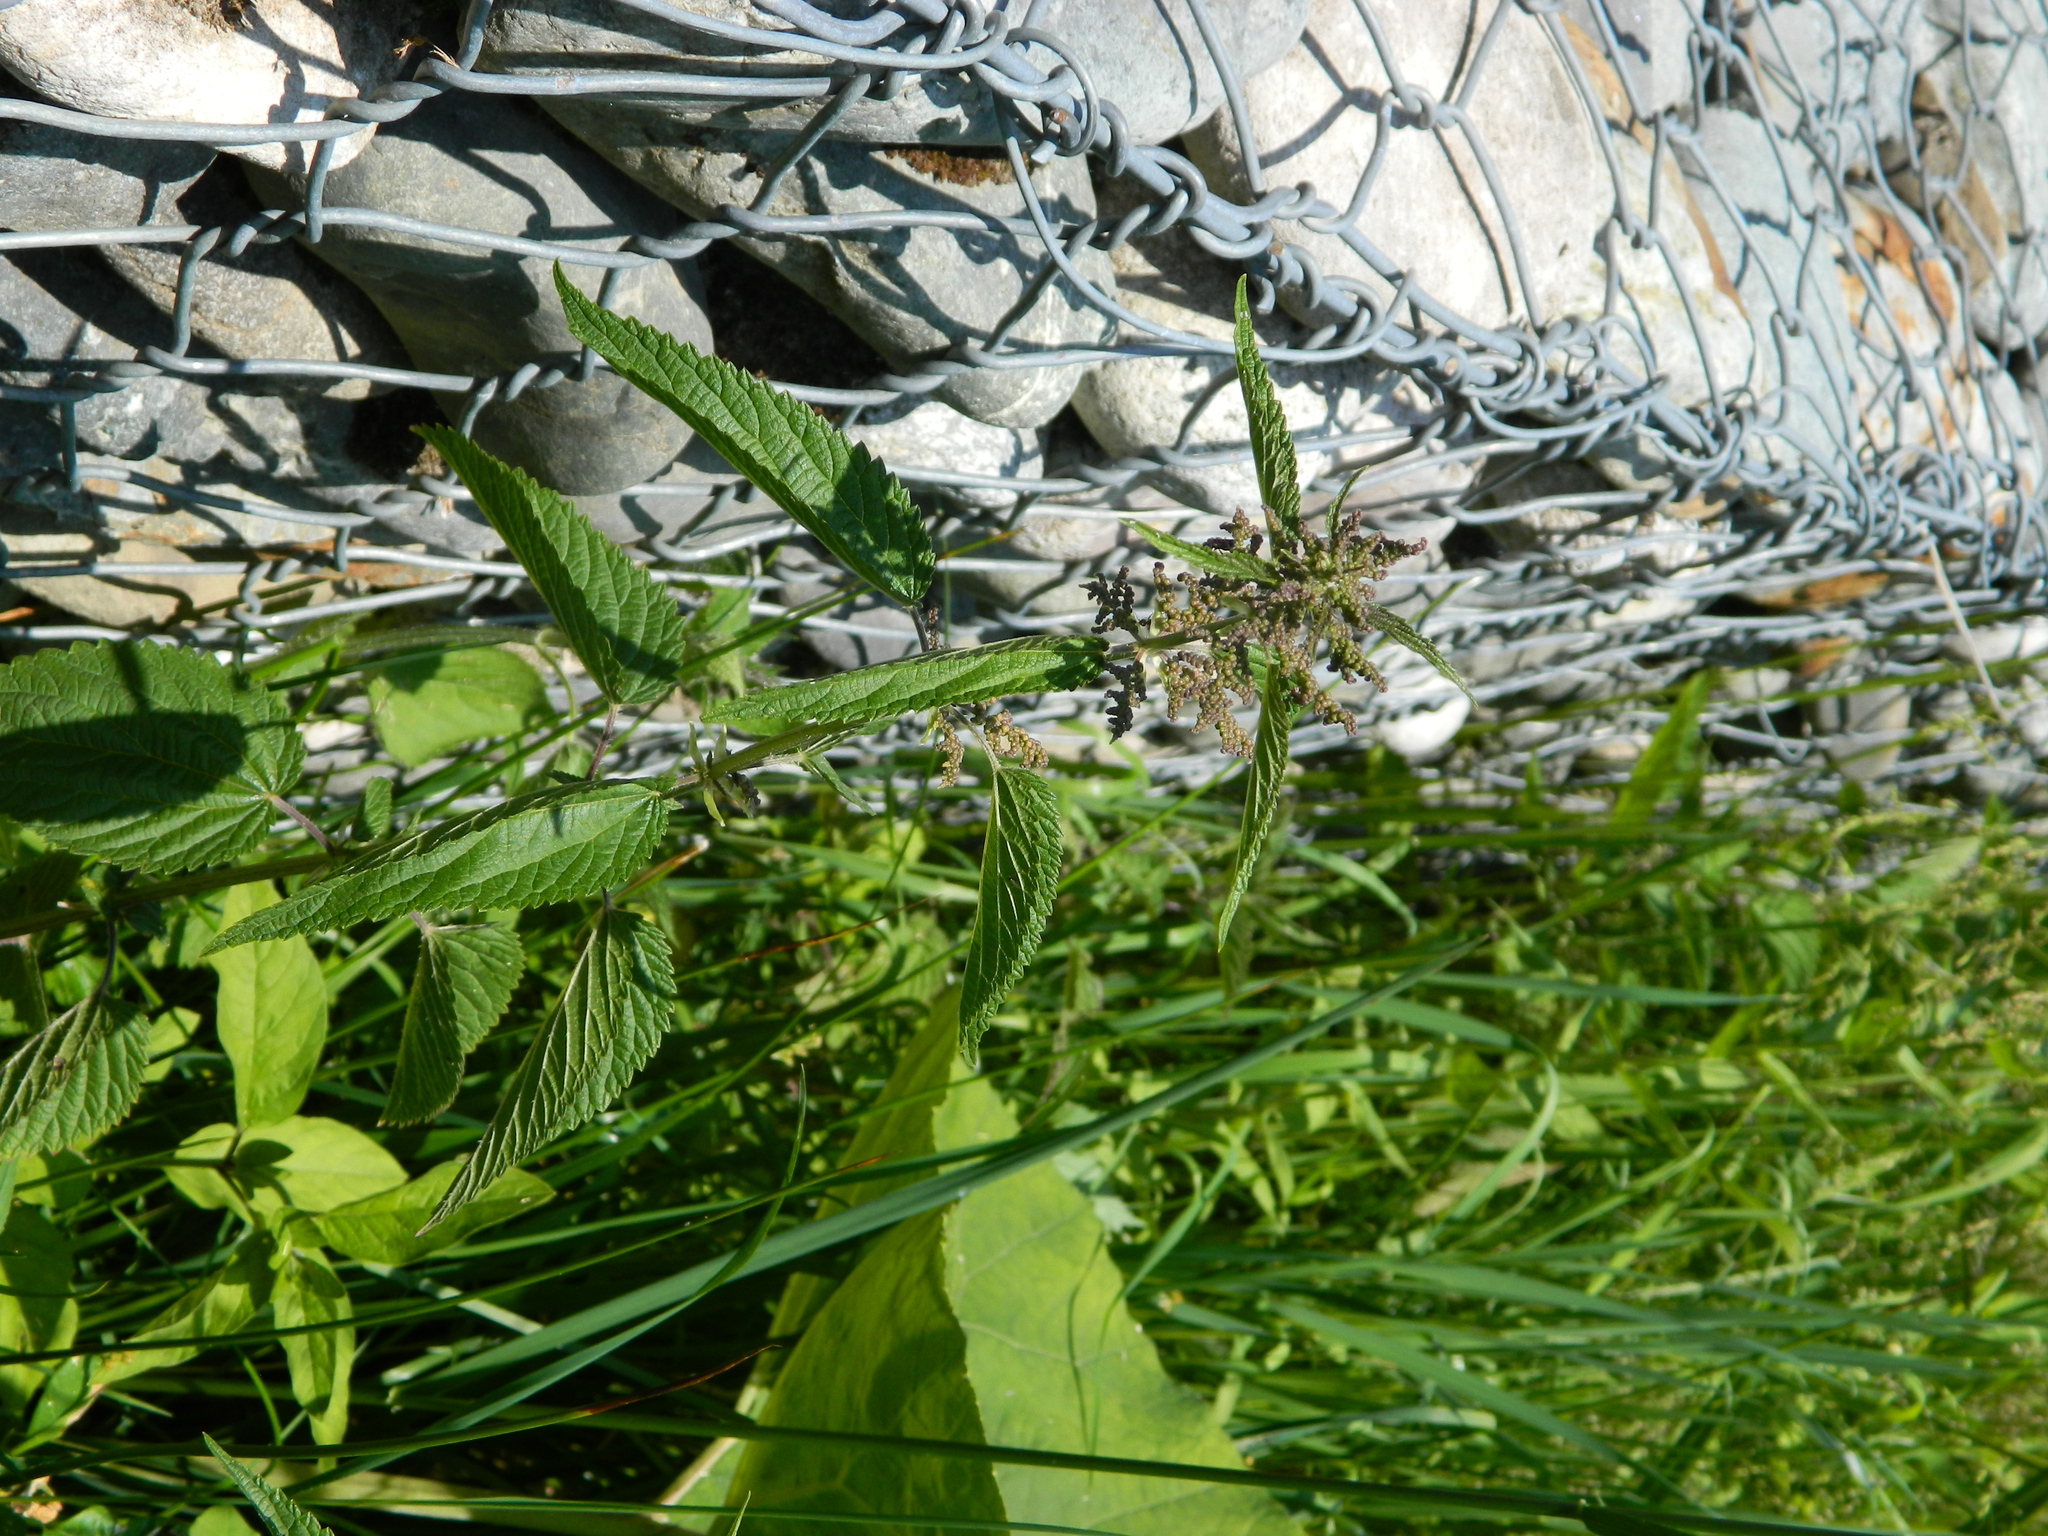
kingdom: Plantae
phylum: Tracheophyta
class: Magnoliopsida
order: Rosales
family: Urticaceae
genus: Urtica
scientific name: Urtica dioica
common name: Common nettle
